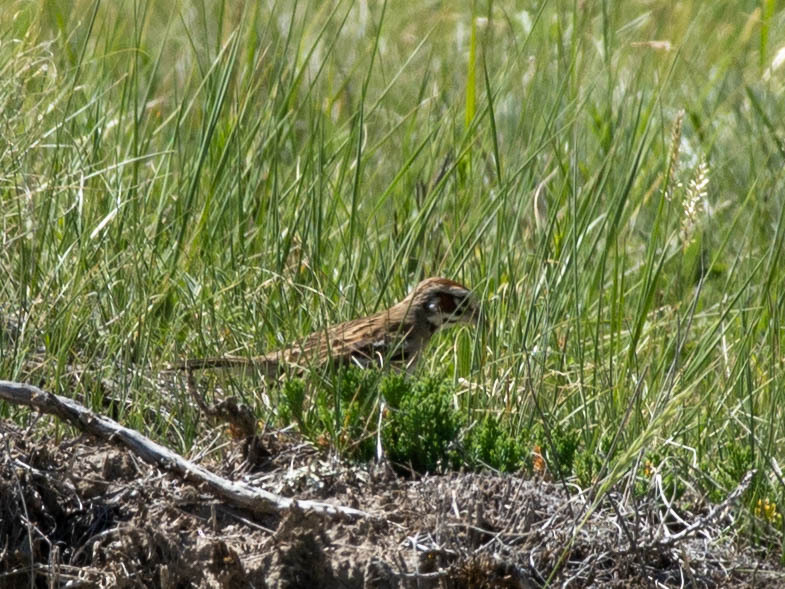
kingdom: Animalia
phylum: Chordata
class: Aves
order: Passeriformes
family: Passerellidae
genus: Chondestes
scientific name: Chondestes grammacus
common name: Lark sparrow
